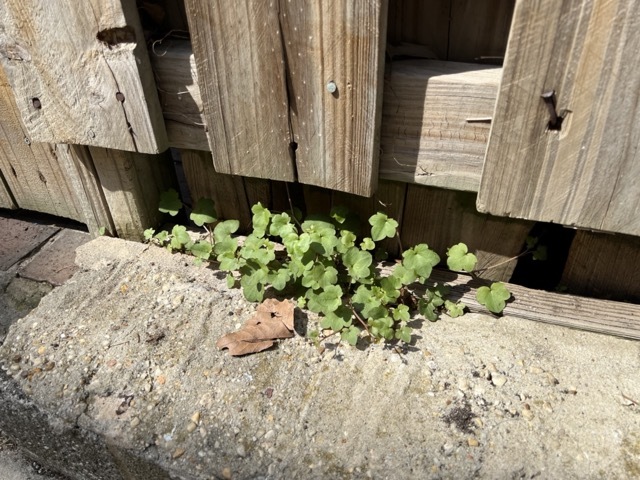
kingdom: Plantae
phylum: Tracheophyta
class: Magnoliopsida
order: Lamiales
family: Plantaginaceae
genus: Cymbalaria
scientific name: Cymbalaria muralis
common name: Ivy-leaved toadflax
